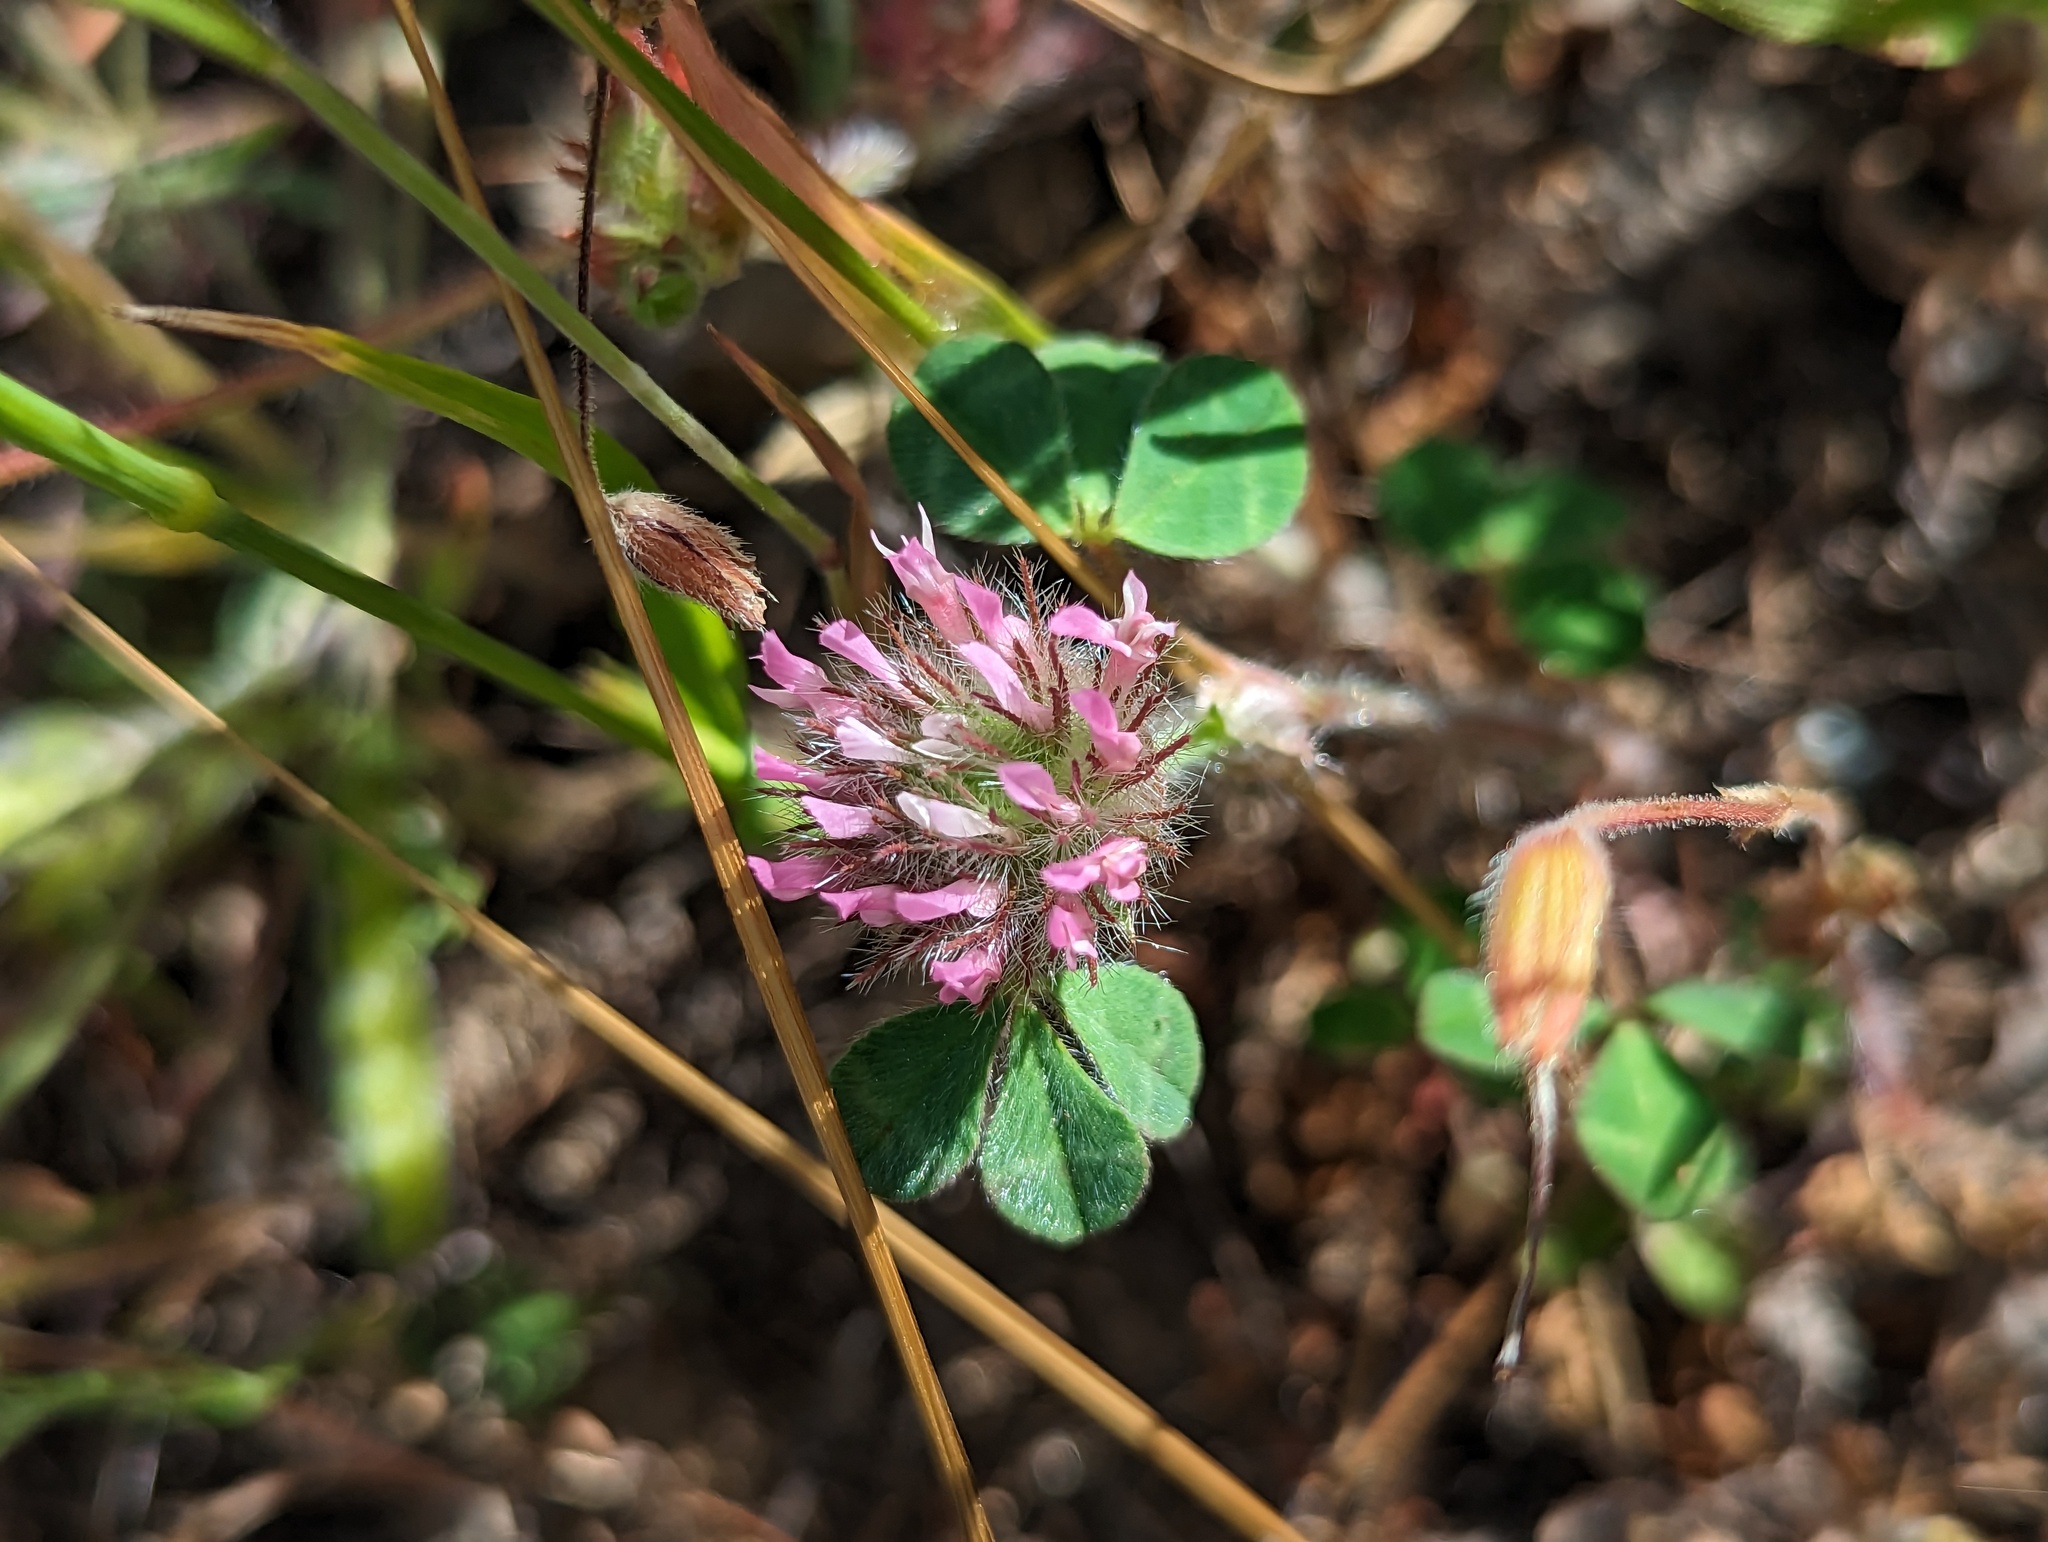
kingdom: Plantae
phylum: Tracheophyta
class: Magnoliopsida
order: Fabales
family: Fabaceae
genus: Trifolium
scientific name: Trifolium hirtum
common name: Rose clover
